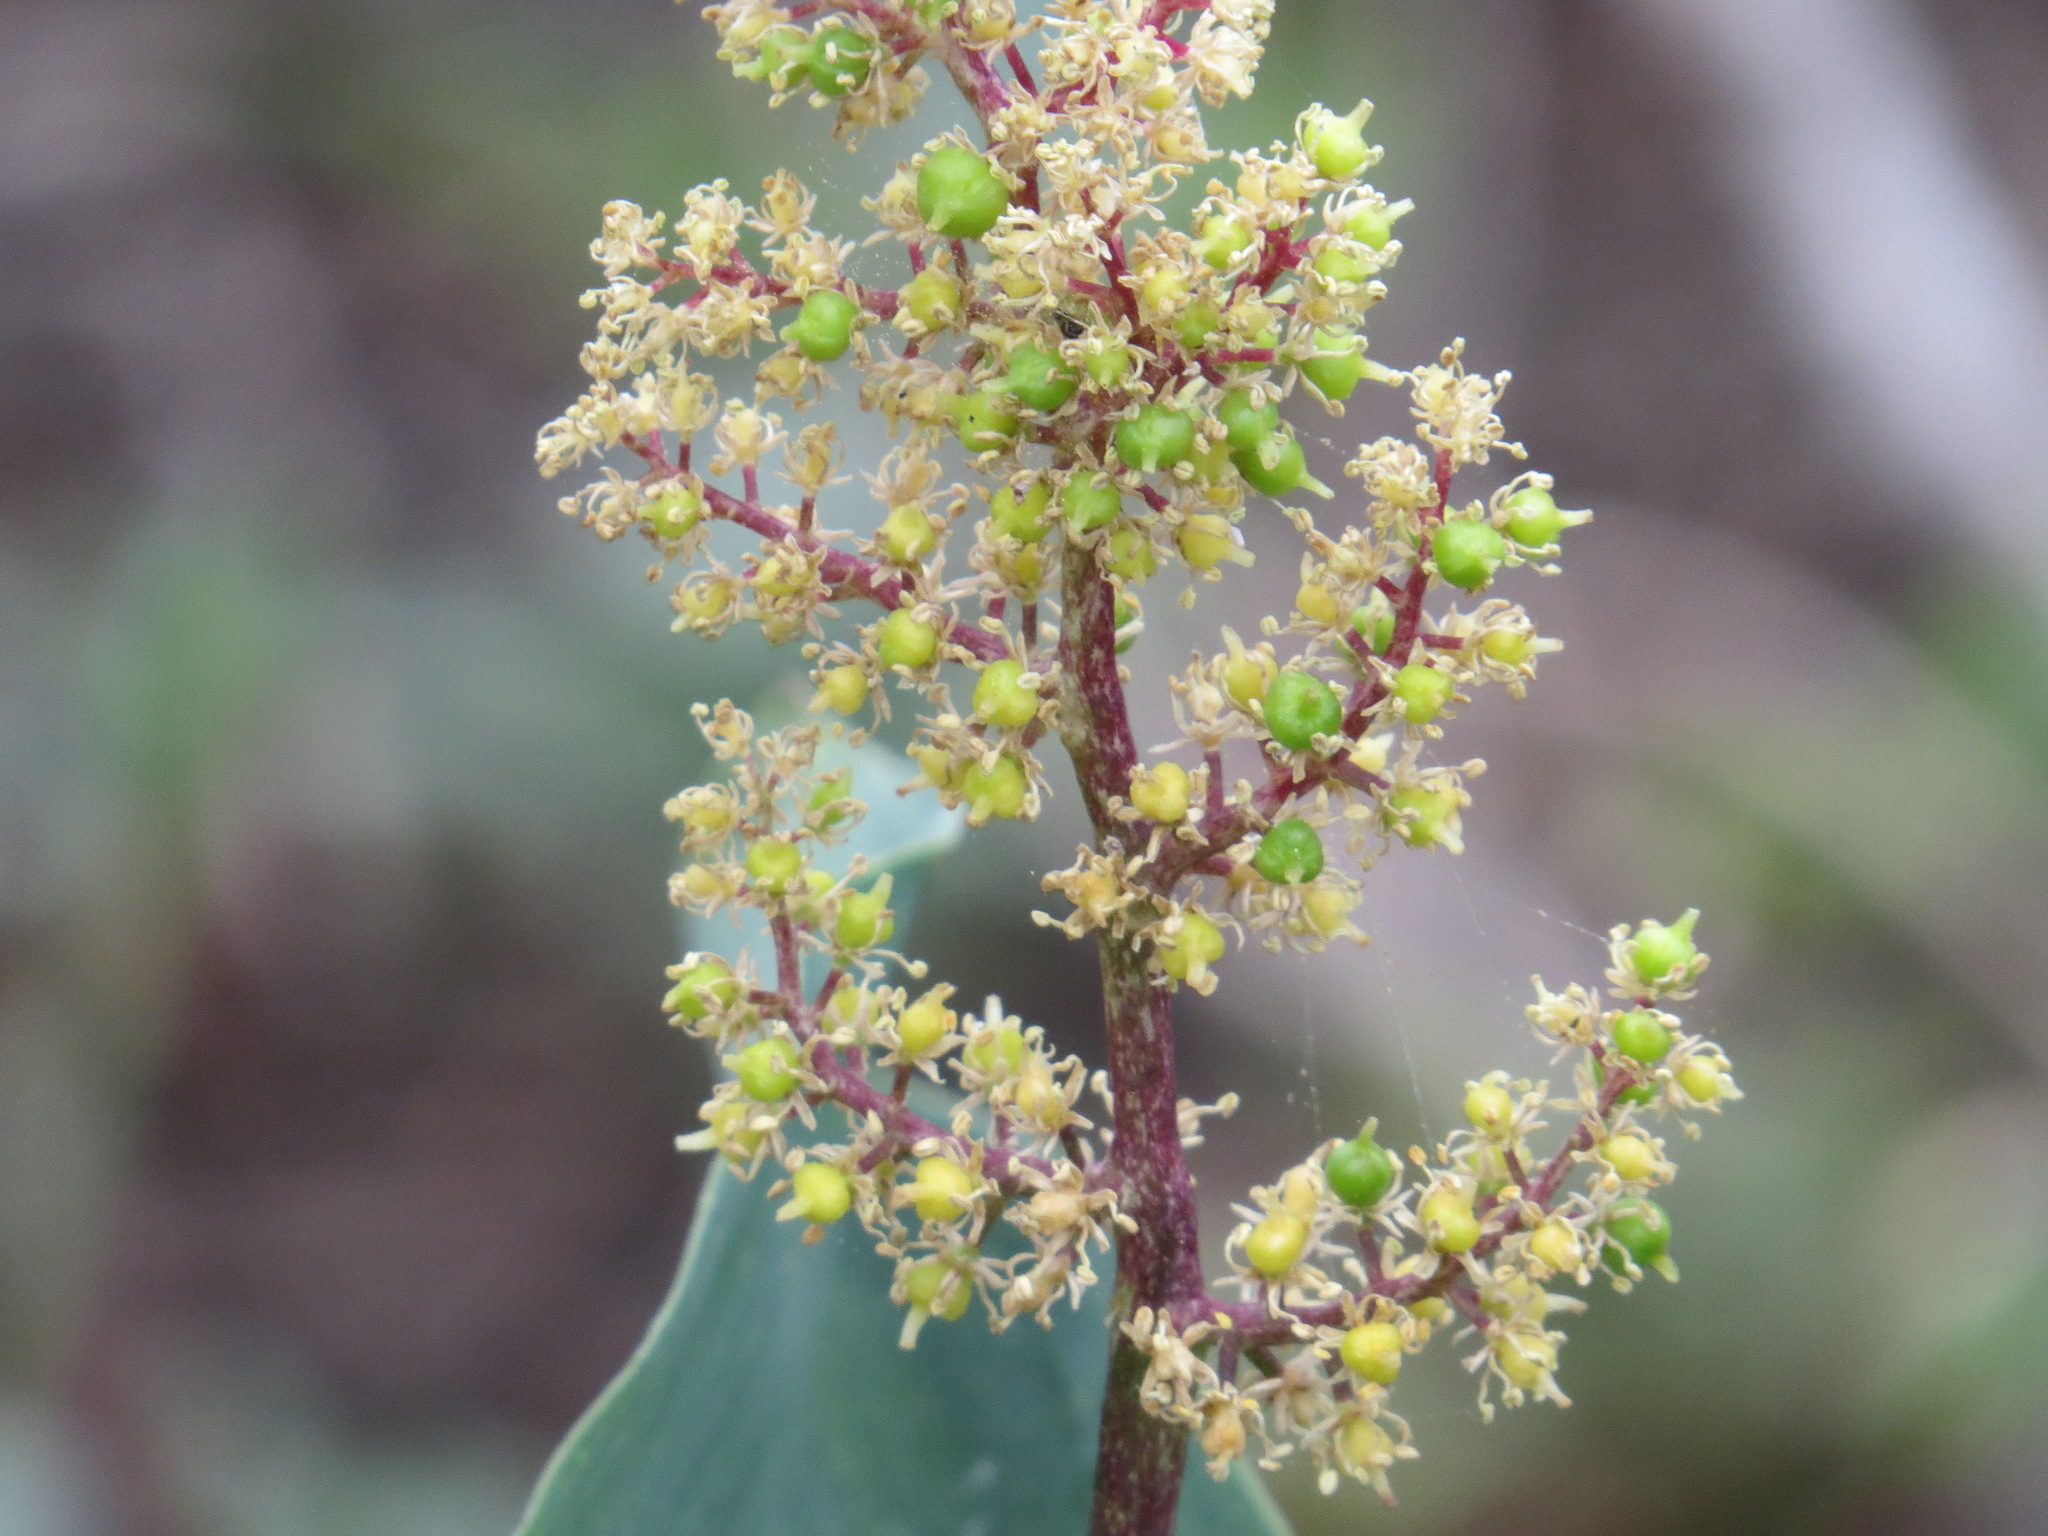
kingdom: Plantae
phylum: Tracheophyta
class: Liliopsida
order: Asparagales
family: Asparagaceae
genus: Maianthemum
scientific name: Maianthemum racemosum
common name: False spikenard
